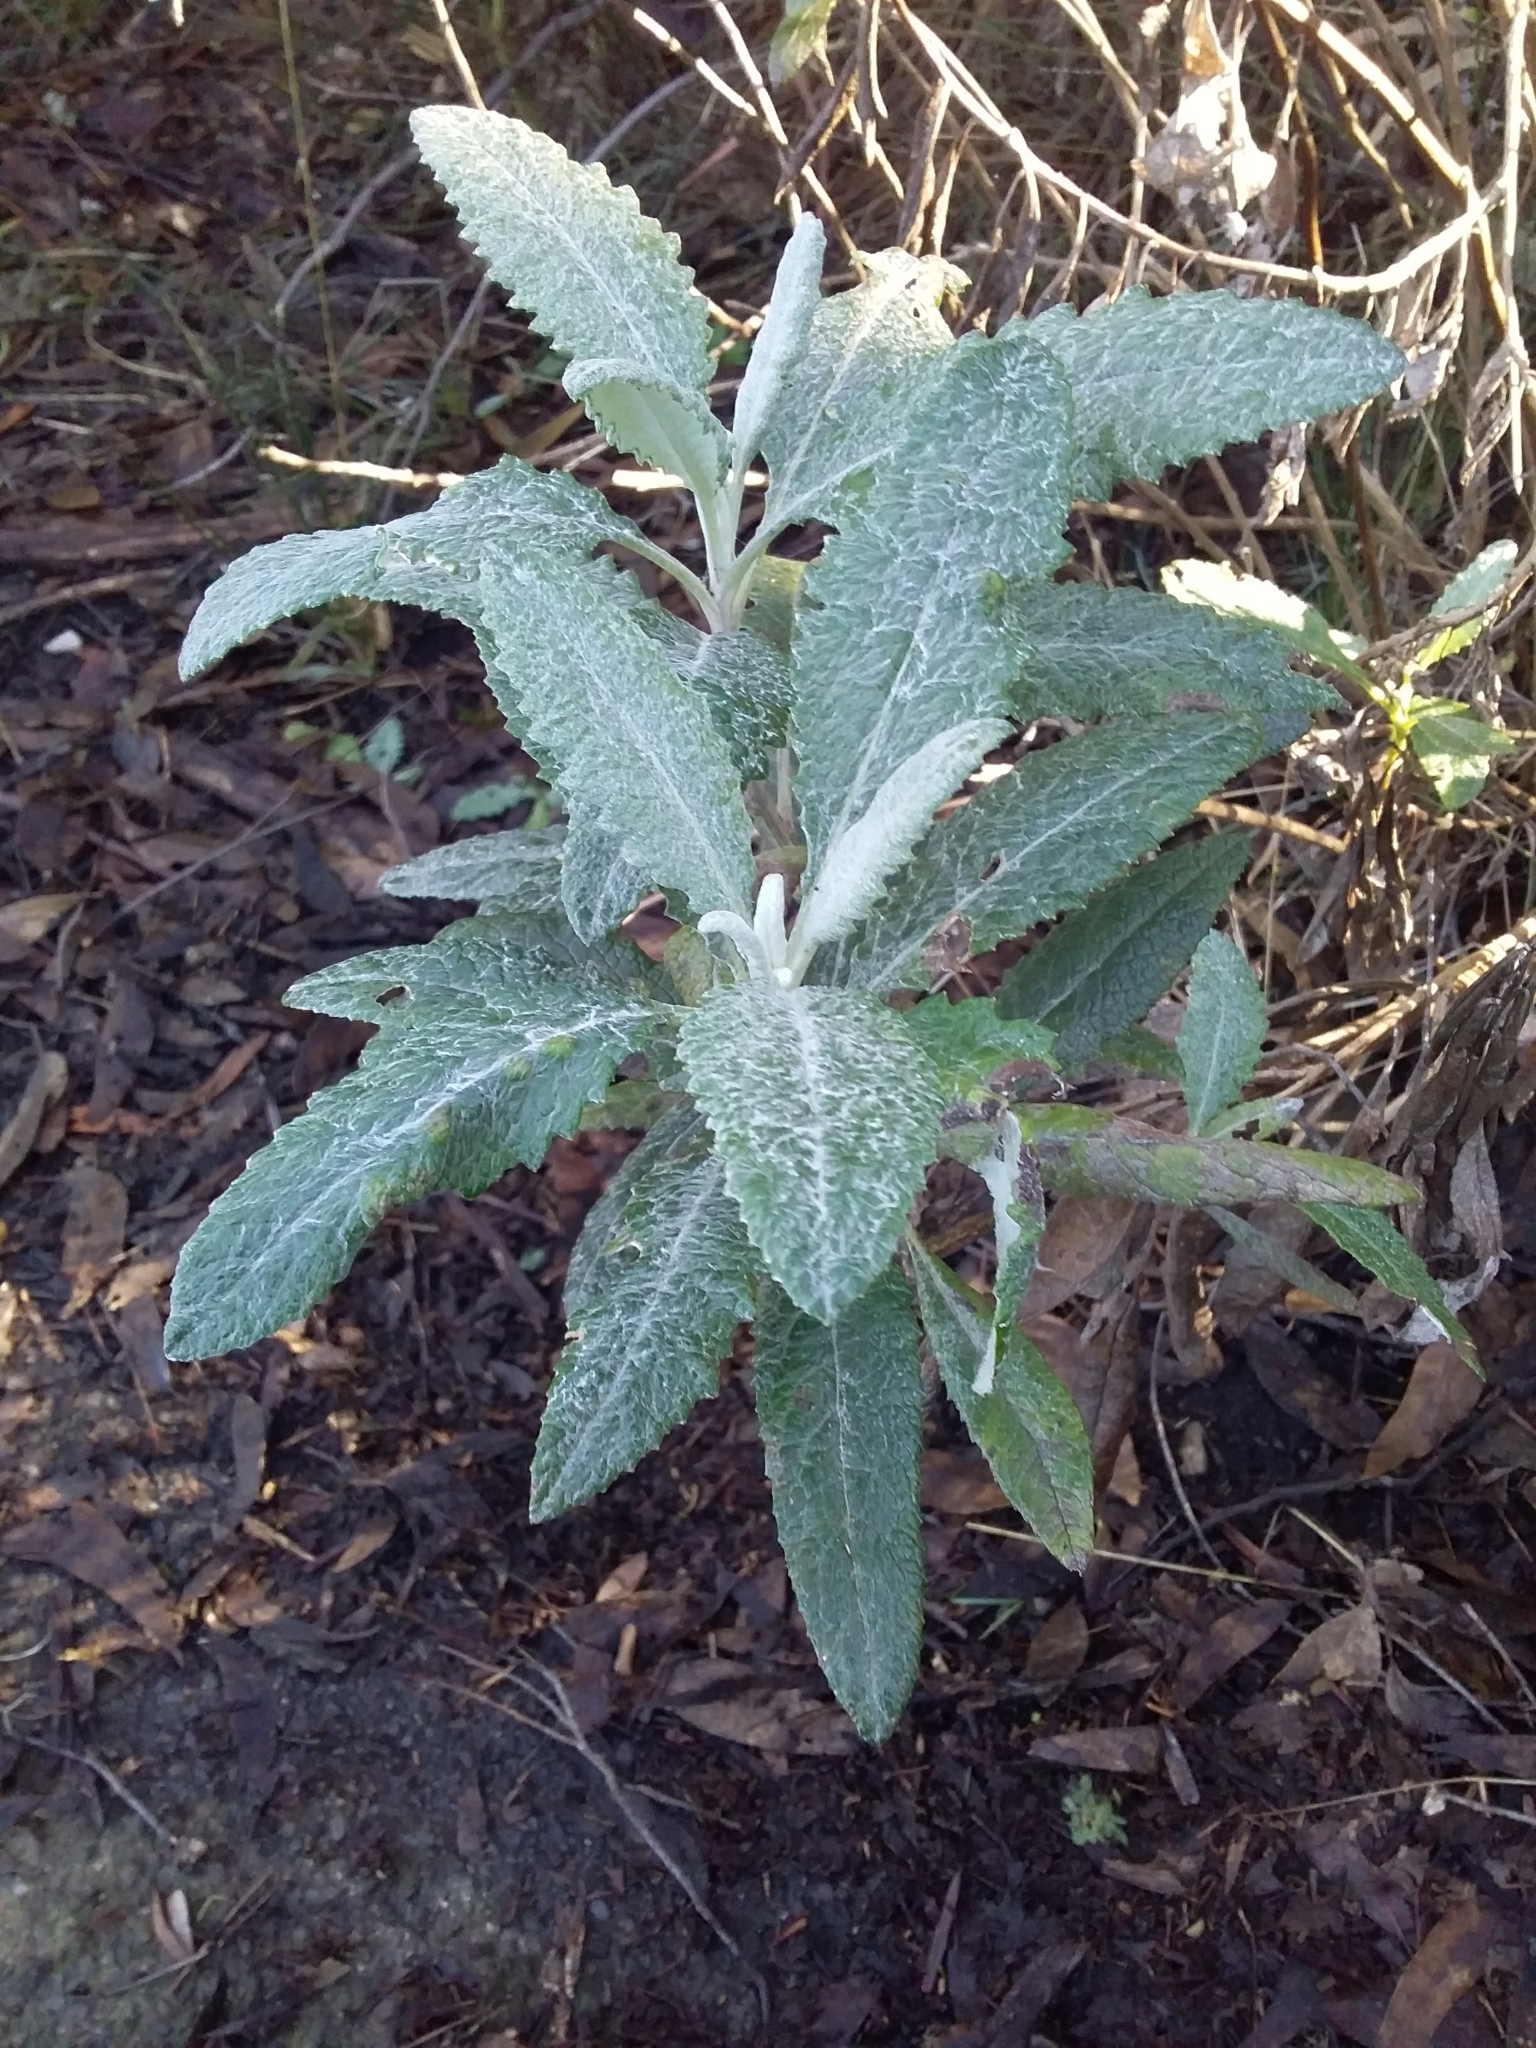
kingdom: Plantae
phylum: Tracheophyta
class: Magnoliopsida
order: Asterales
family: Asteraceae
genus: Senecio
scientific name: Senecio hypoleucus
